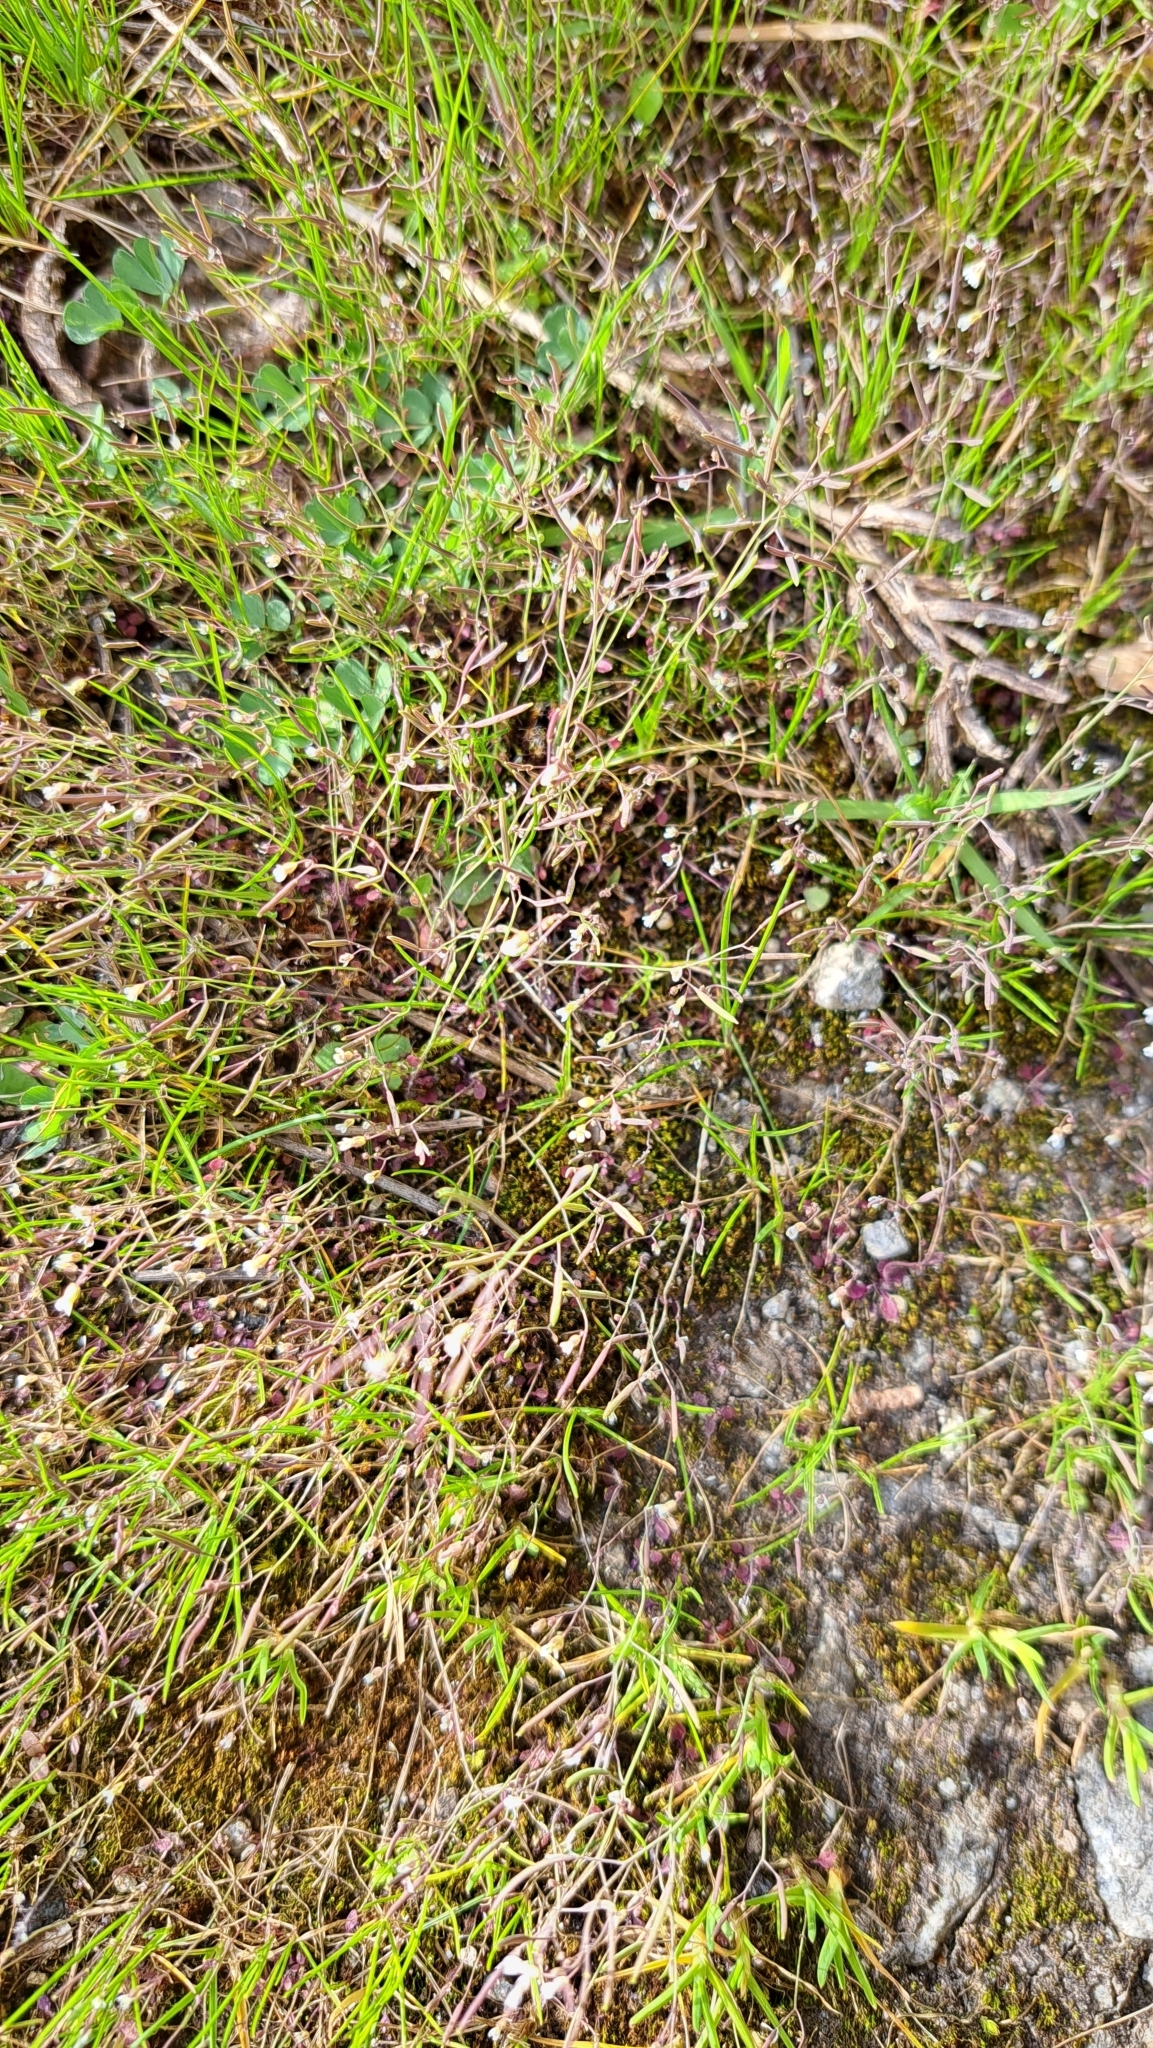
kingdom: Plantae
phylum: Tracheophyta
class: Magnoliopsida
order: Brassicales
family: Brassicaceae
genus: Arabidopsis
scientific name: Arabidopsis thaliana
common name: Thale cress
